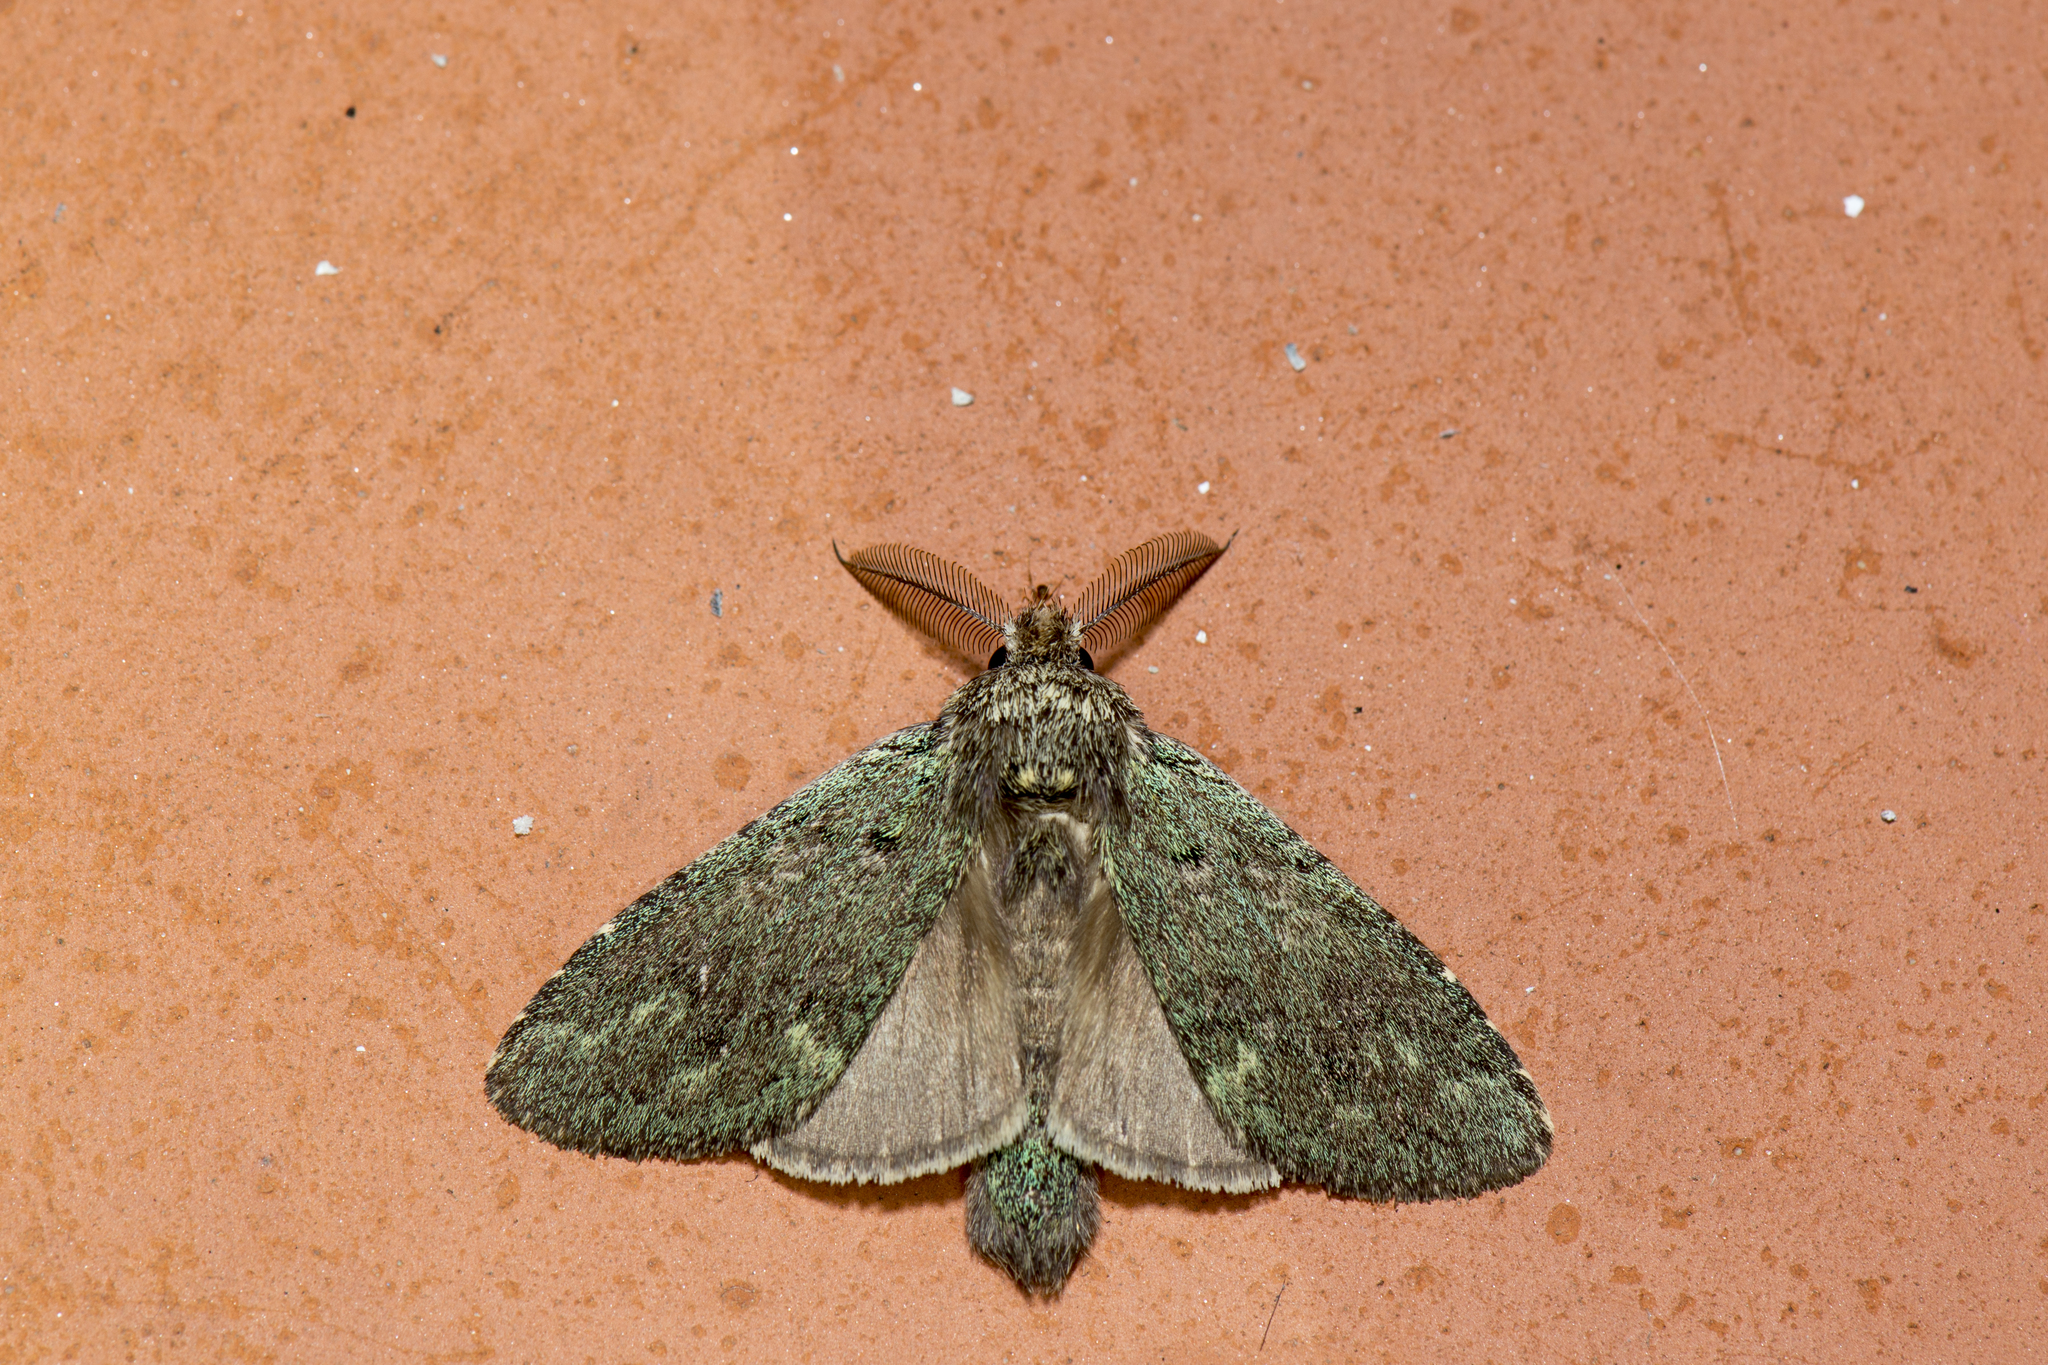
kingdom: Animalia
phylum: Arthropoda
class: Insecta
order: Lepidoptera
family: Notodontidae
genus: Syntypistis
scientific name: Syntypistis cyanea
